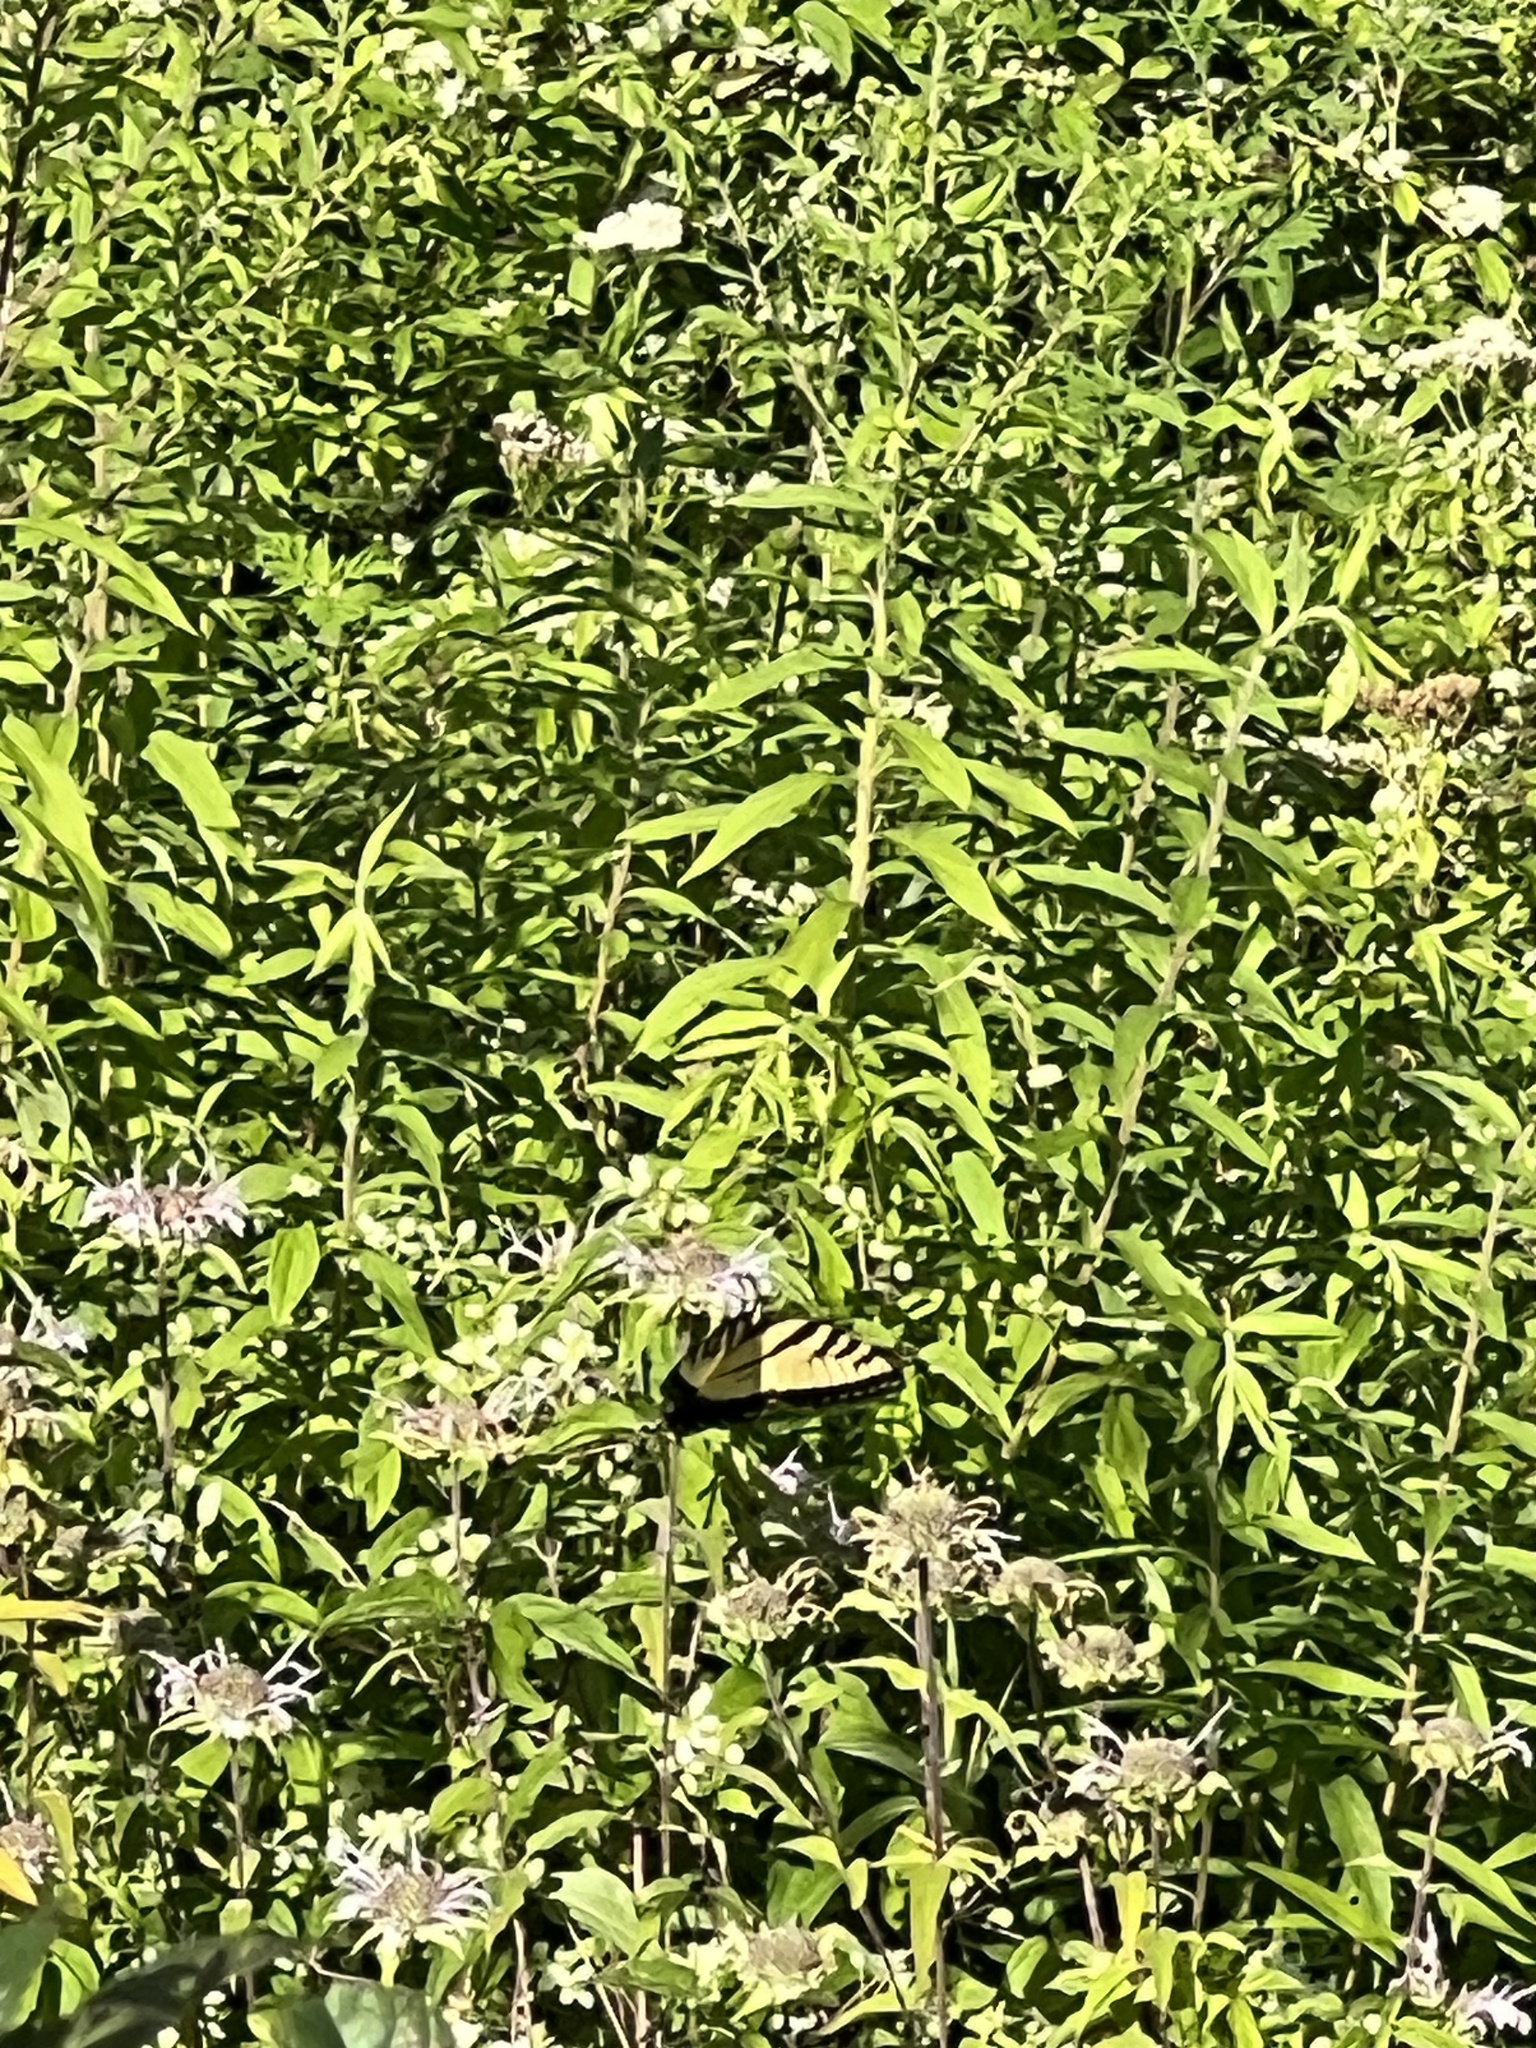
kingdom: Animalia
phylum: Arthropoda
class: Insecta
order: Lepidoptera
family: Papilionidae
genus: Papilio
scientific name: Papilio glaucus
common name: Tiger swallowtail
